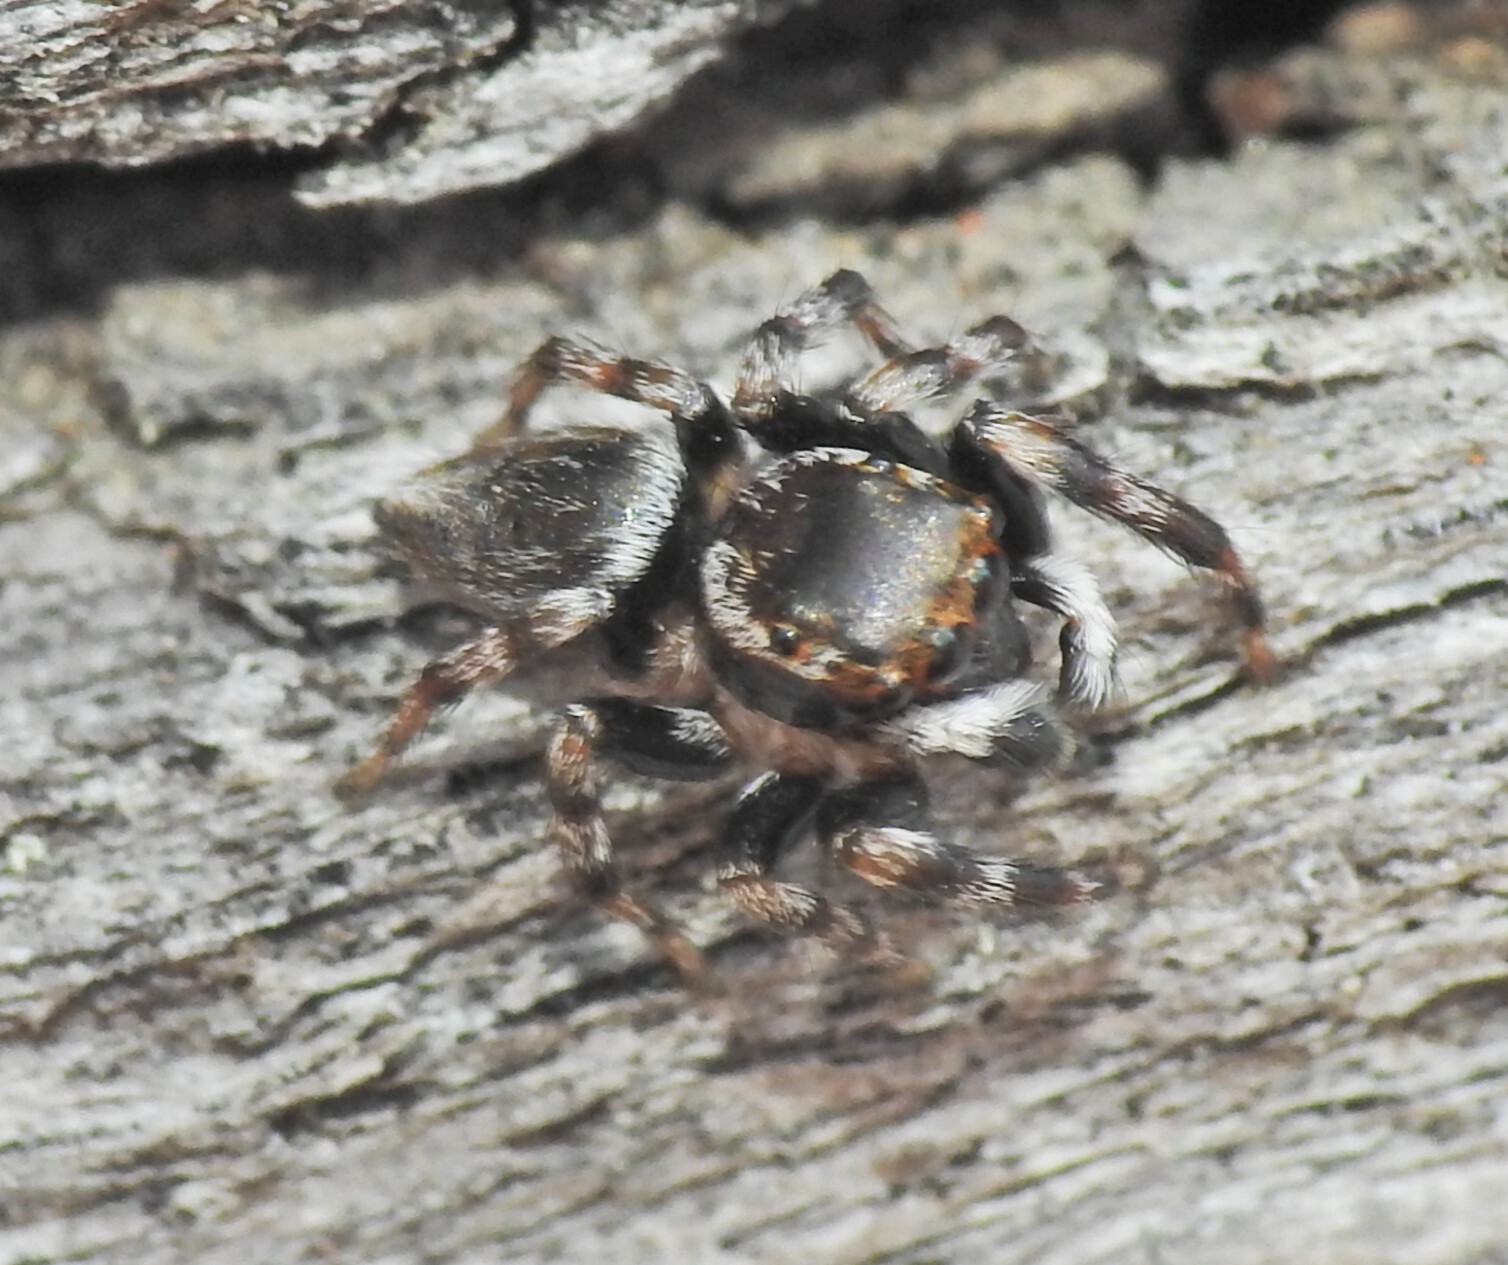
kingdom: Animalia
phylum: Arthropoda
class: Arachnida
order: Araneae
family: Salticidae
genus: Maratus
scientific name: Maratus scutulatus
